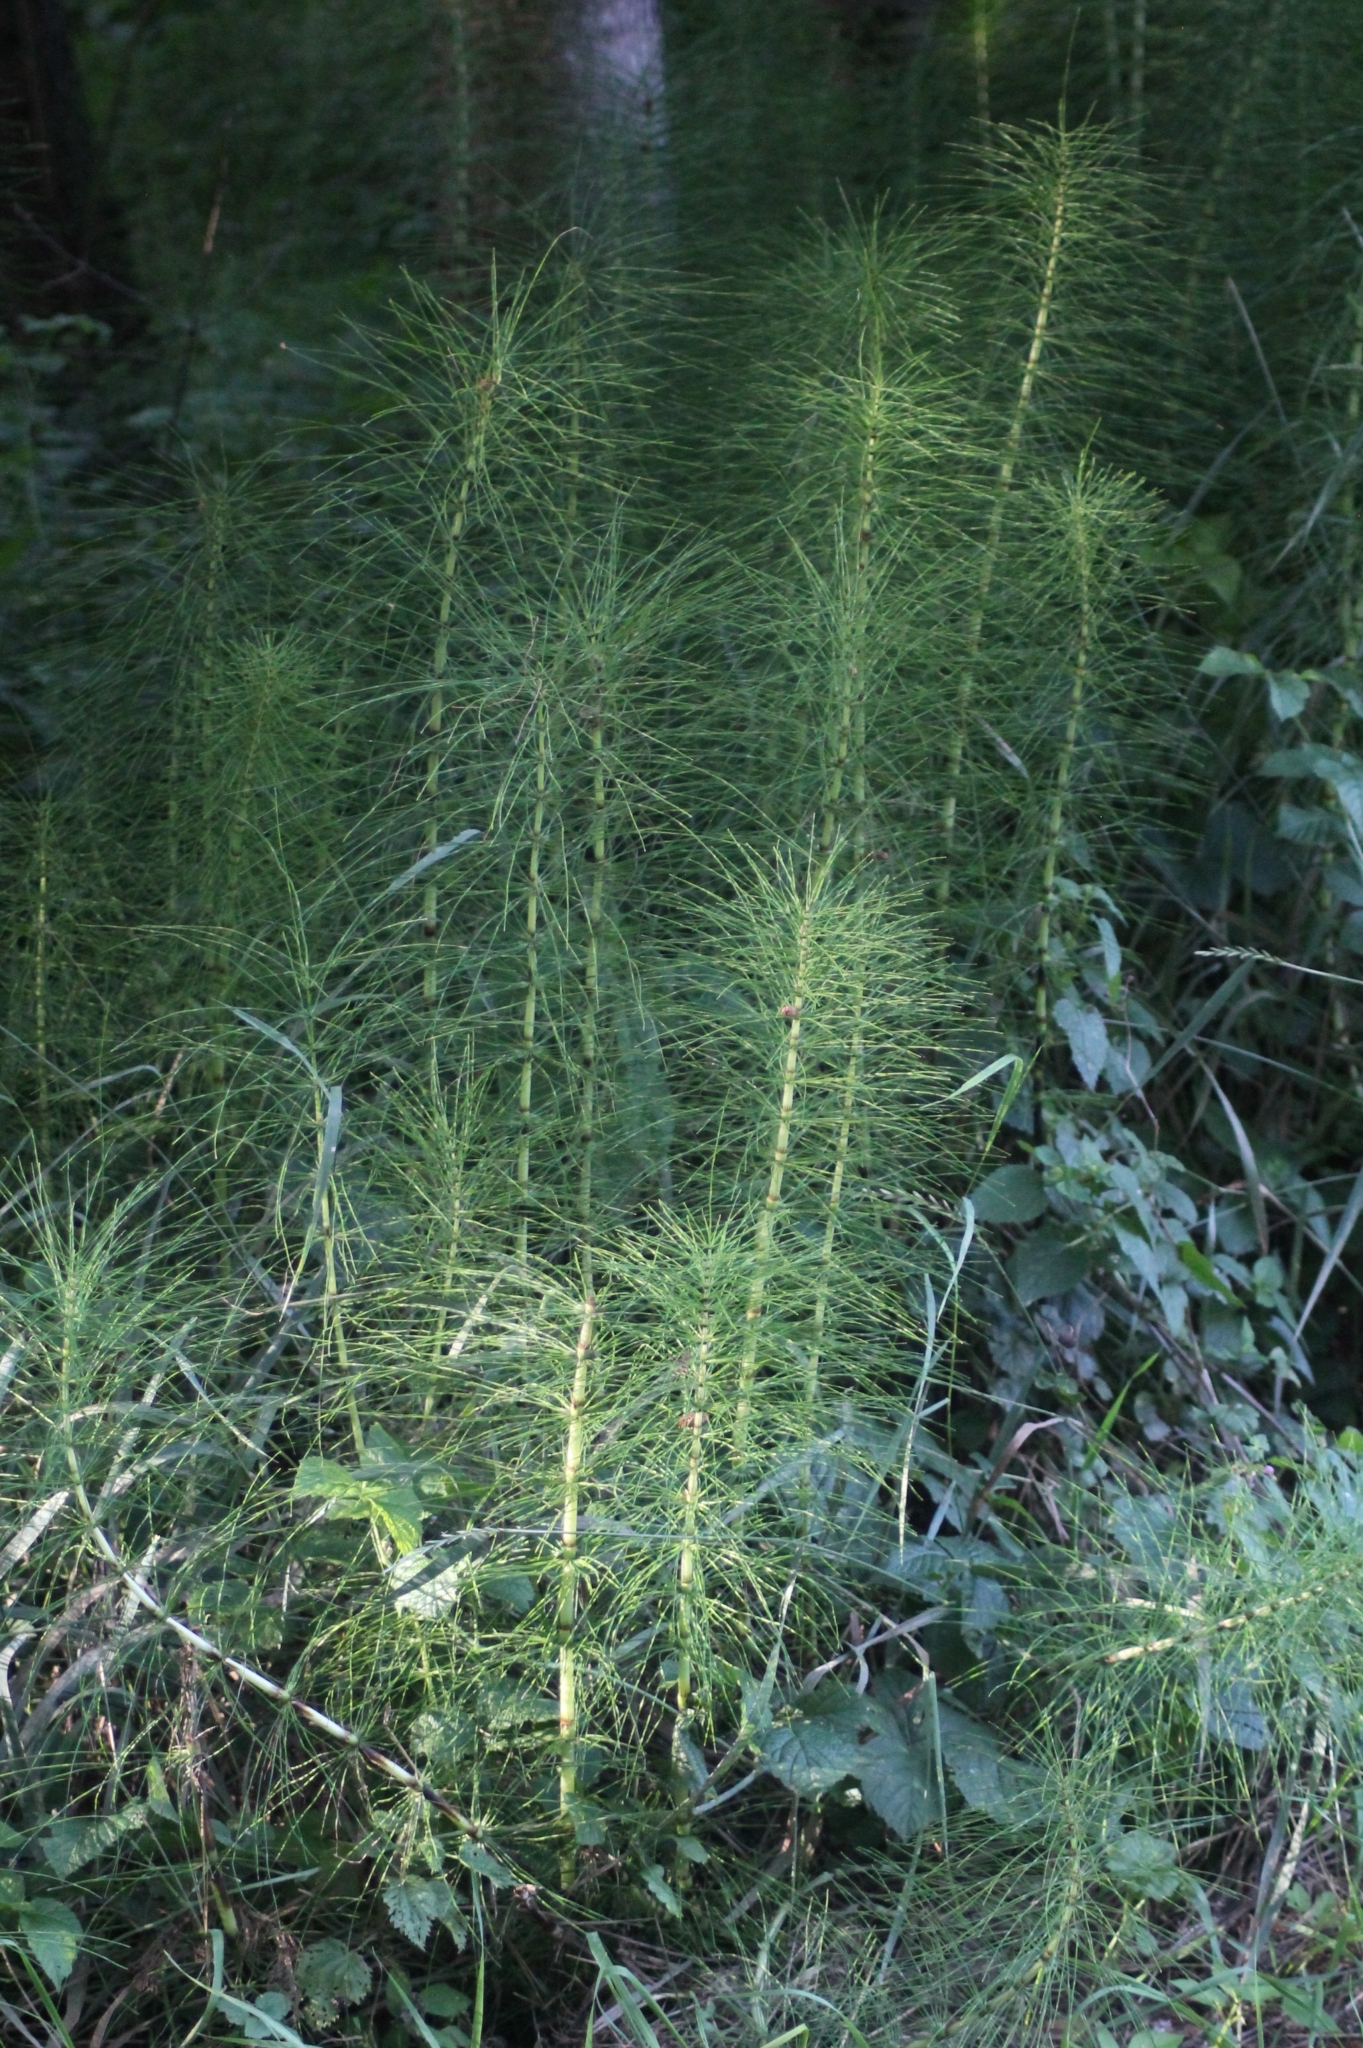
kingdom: Plantae
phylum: Tracheophyta
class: Polypodiopsida
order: Equisetales
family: Equisetaceae
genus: Equisetum
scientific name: Equisetum telmateia
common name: Great horsetail
